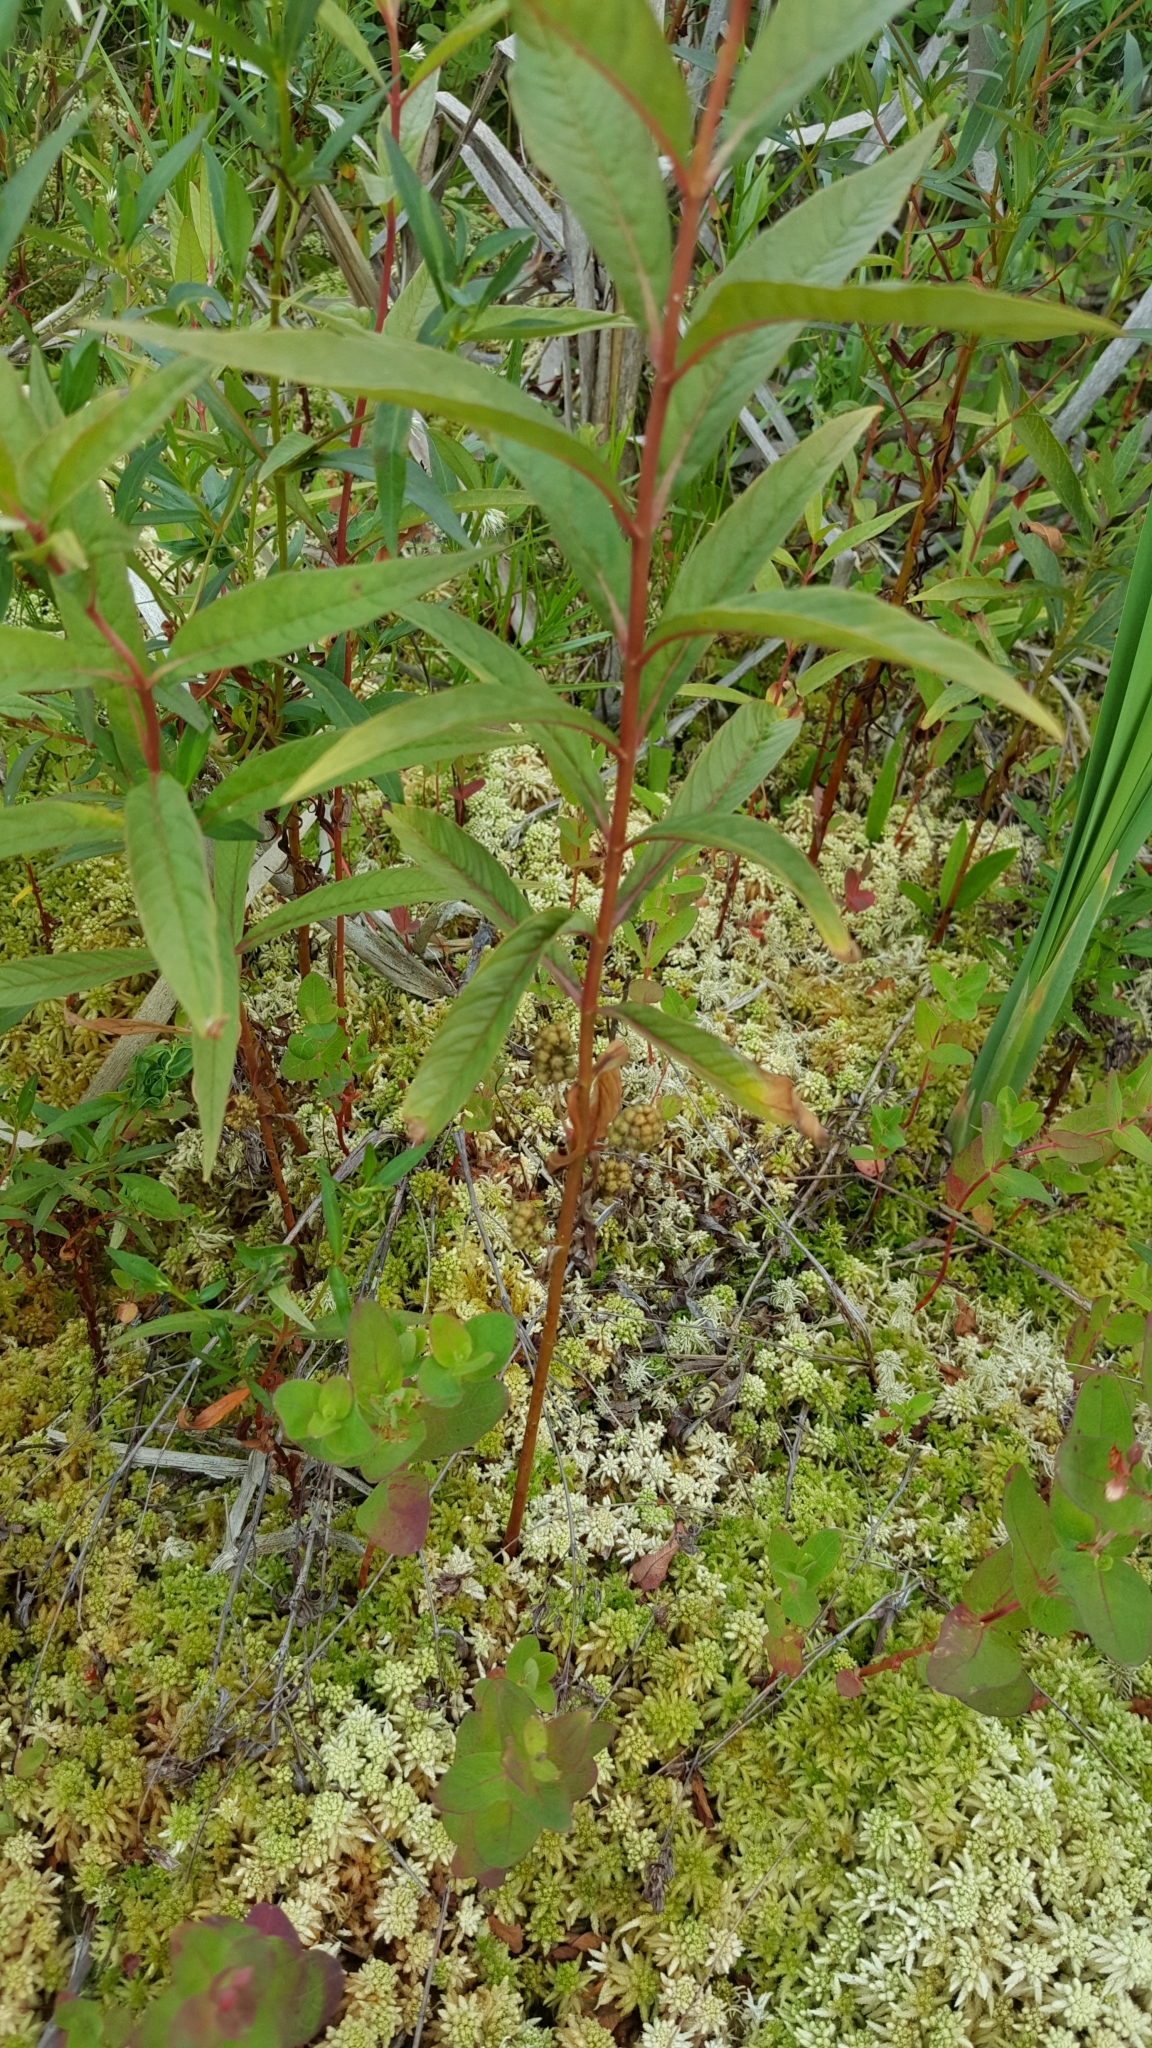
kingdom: Plantae
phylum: Tracheophyta
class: Magnoliopsida
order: Ericales
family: Primulaceae
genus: Lysimachia
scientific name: Lysimachia thyrsiflora
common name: Tufted loosestrife
